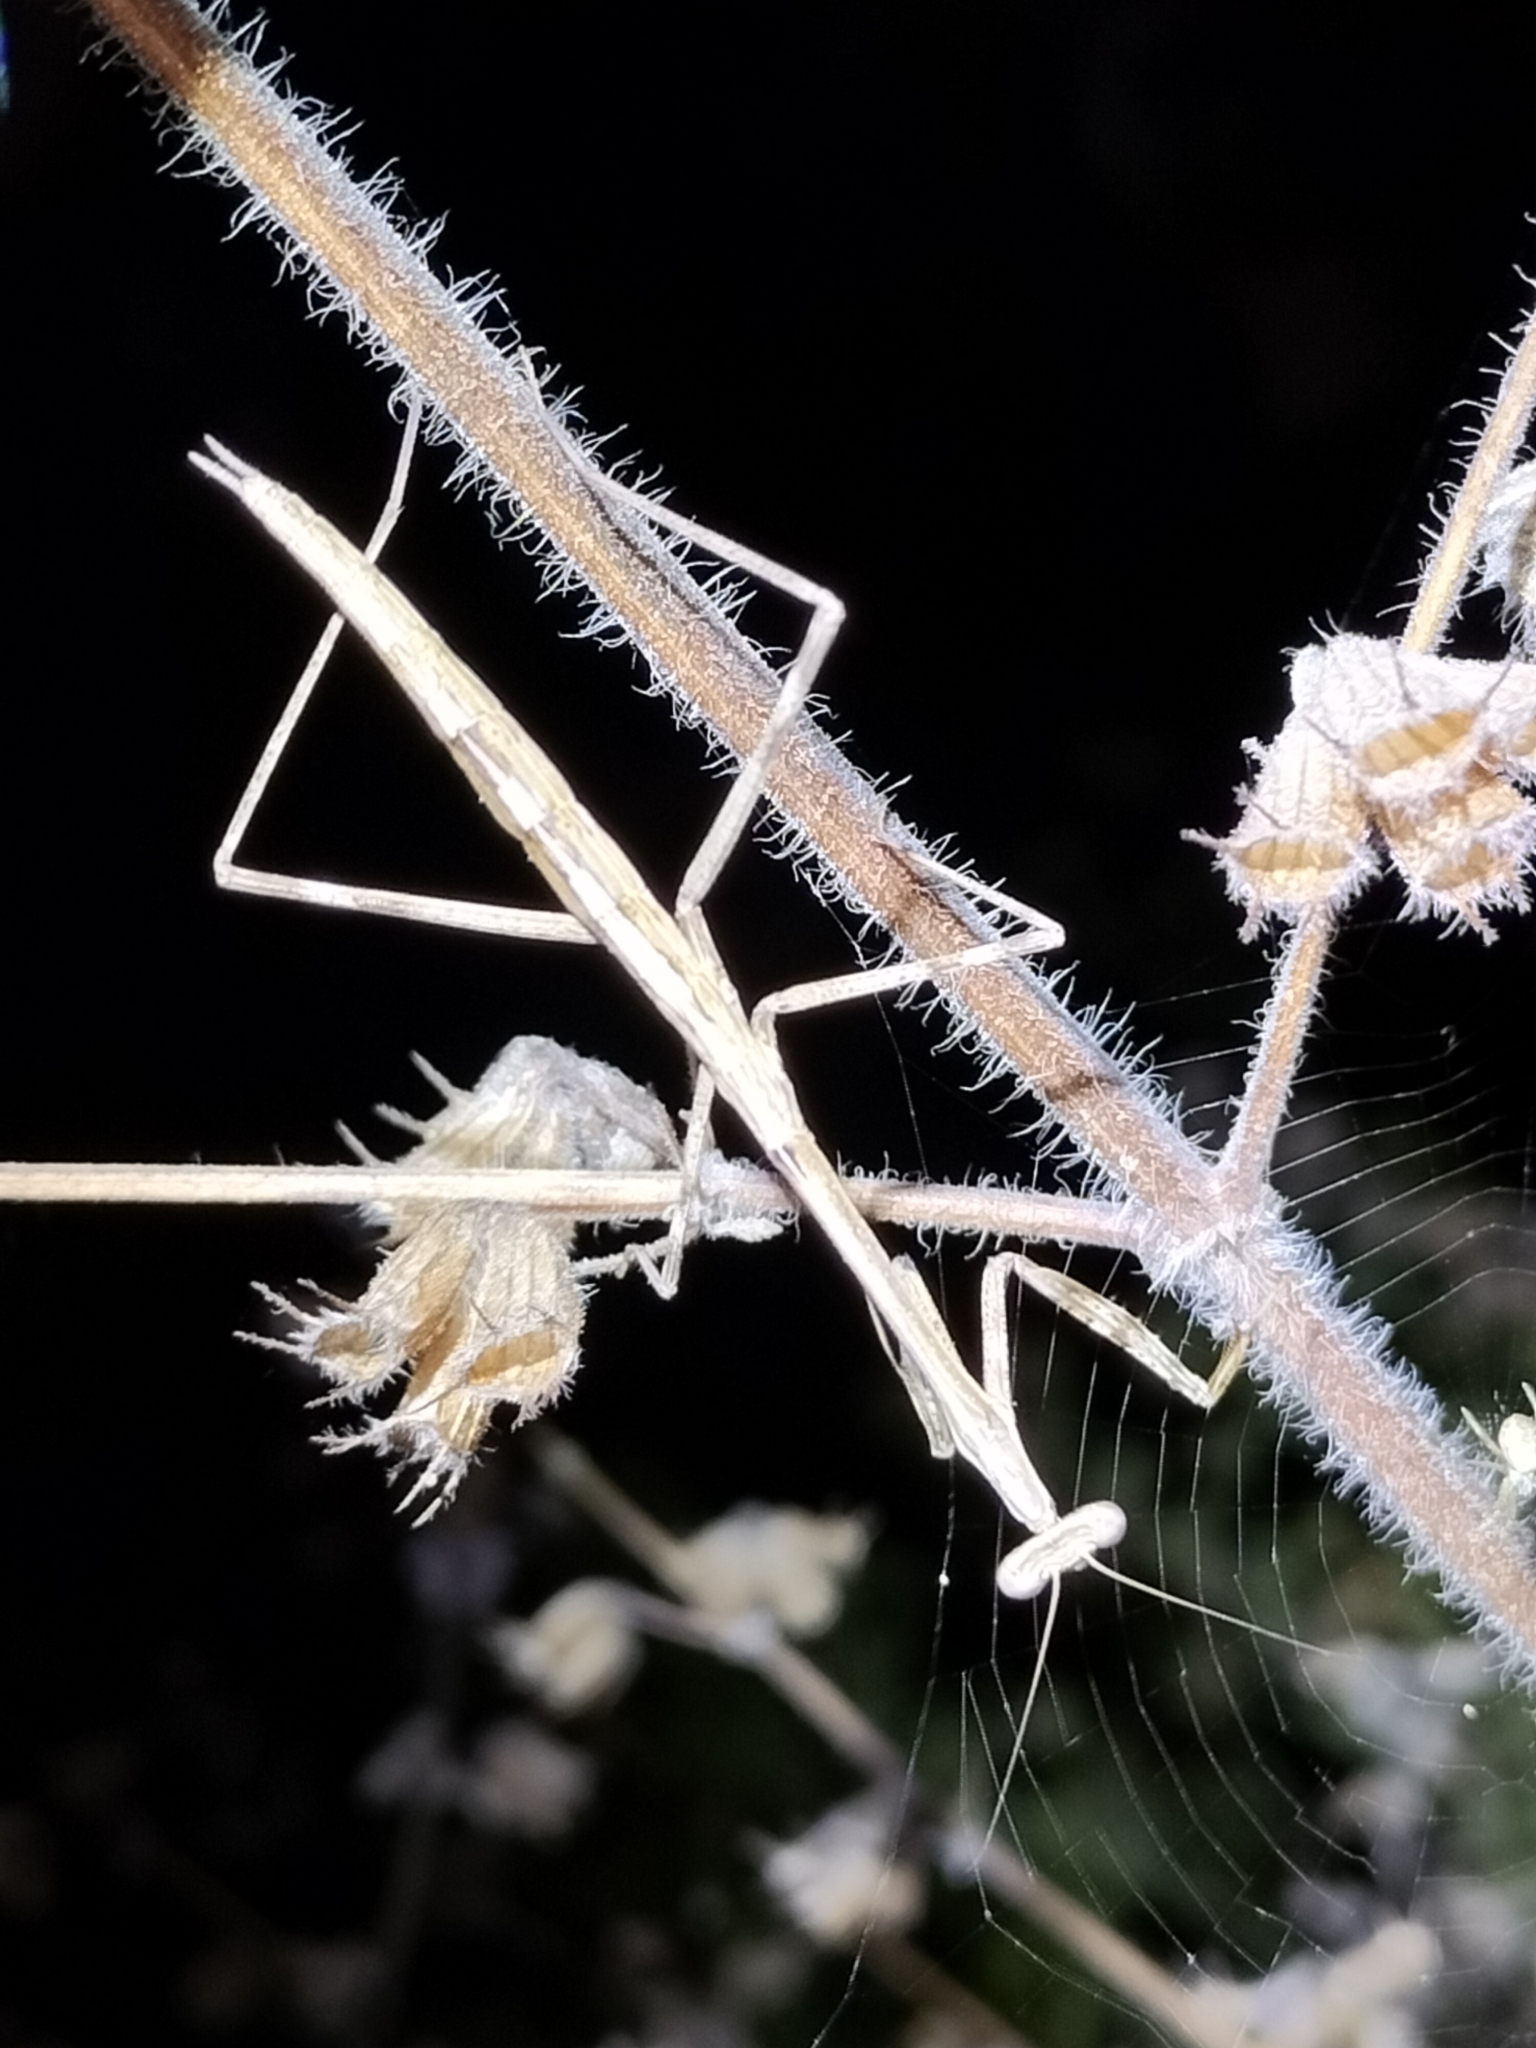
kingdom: Animalia
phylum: Arthropoda
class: Insecta
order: Mantodea
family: Mantidae
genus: Archimantis
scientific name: Archimantis latistyla
